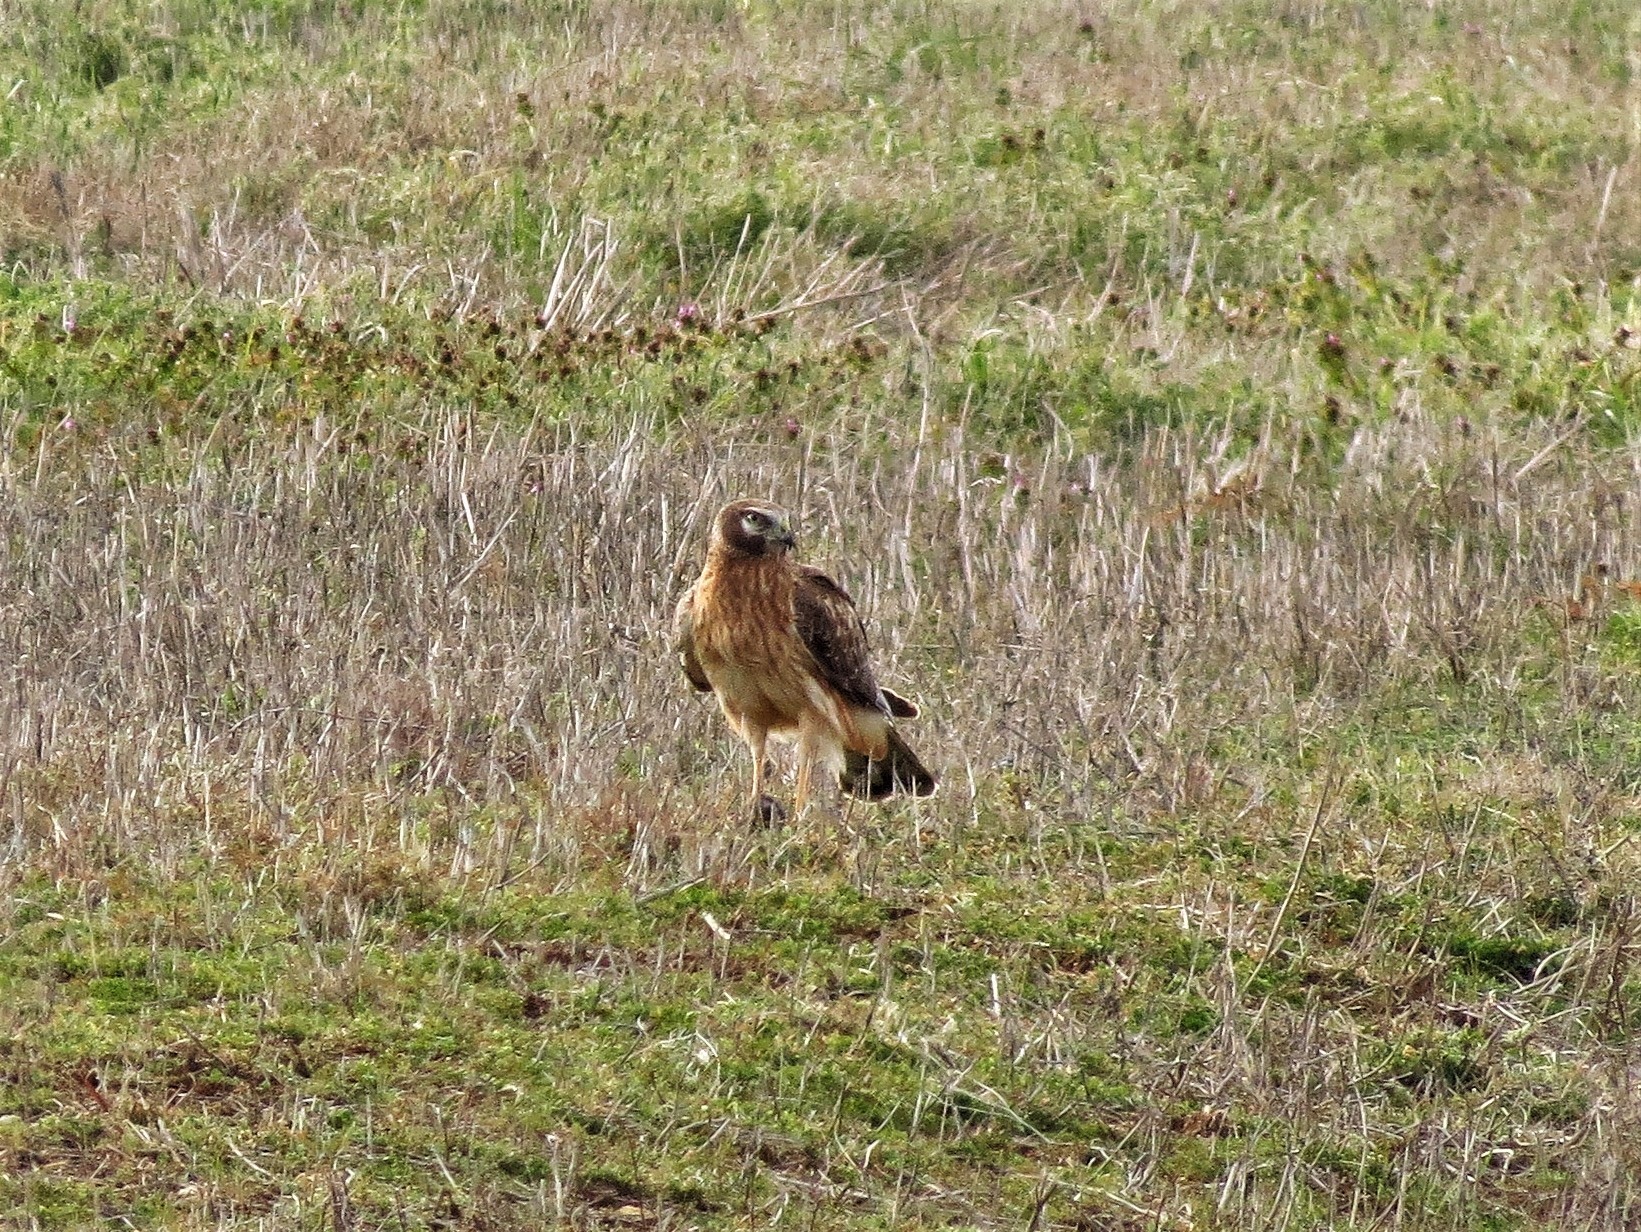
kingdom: Animalia
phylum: Chordata
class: Aves
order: Accipitriformes
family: Accipitridae
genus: Circus
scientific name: Circus cyaneus
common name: Hen harrier
